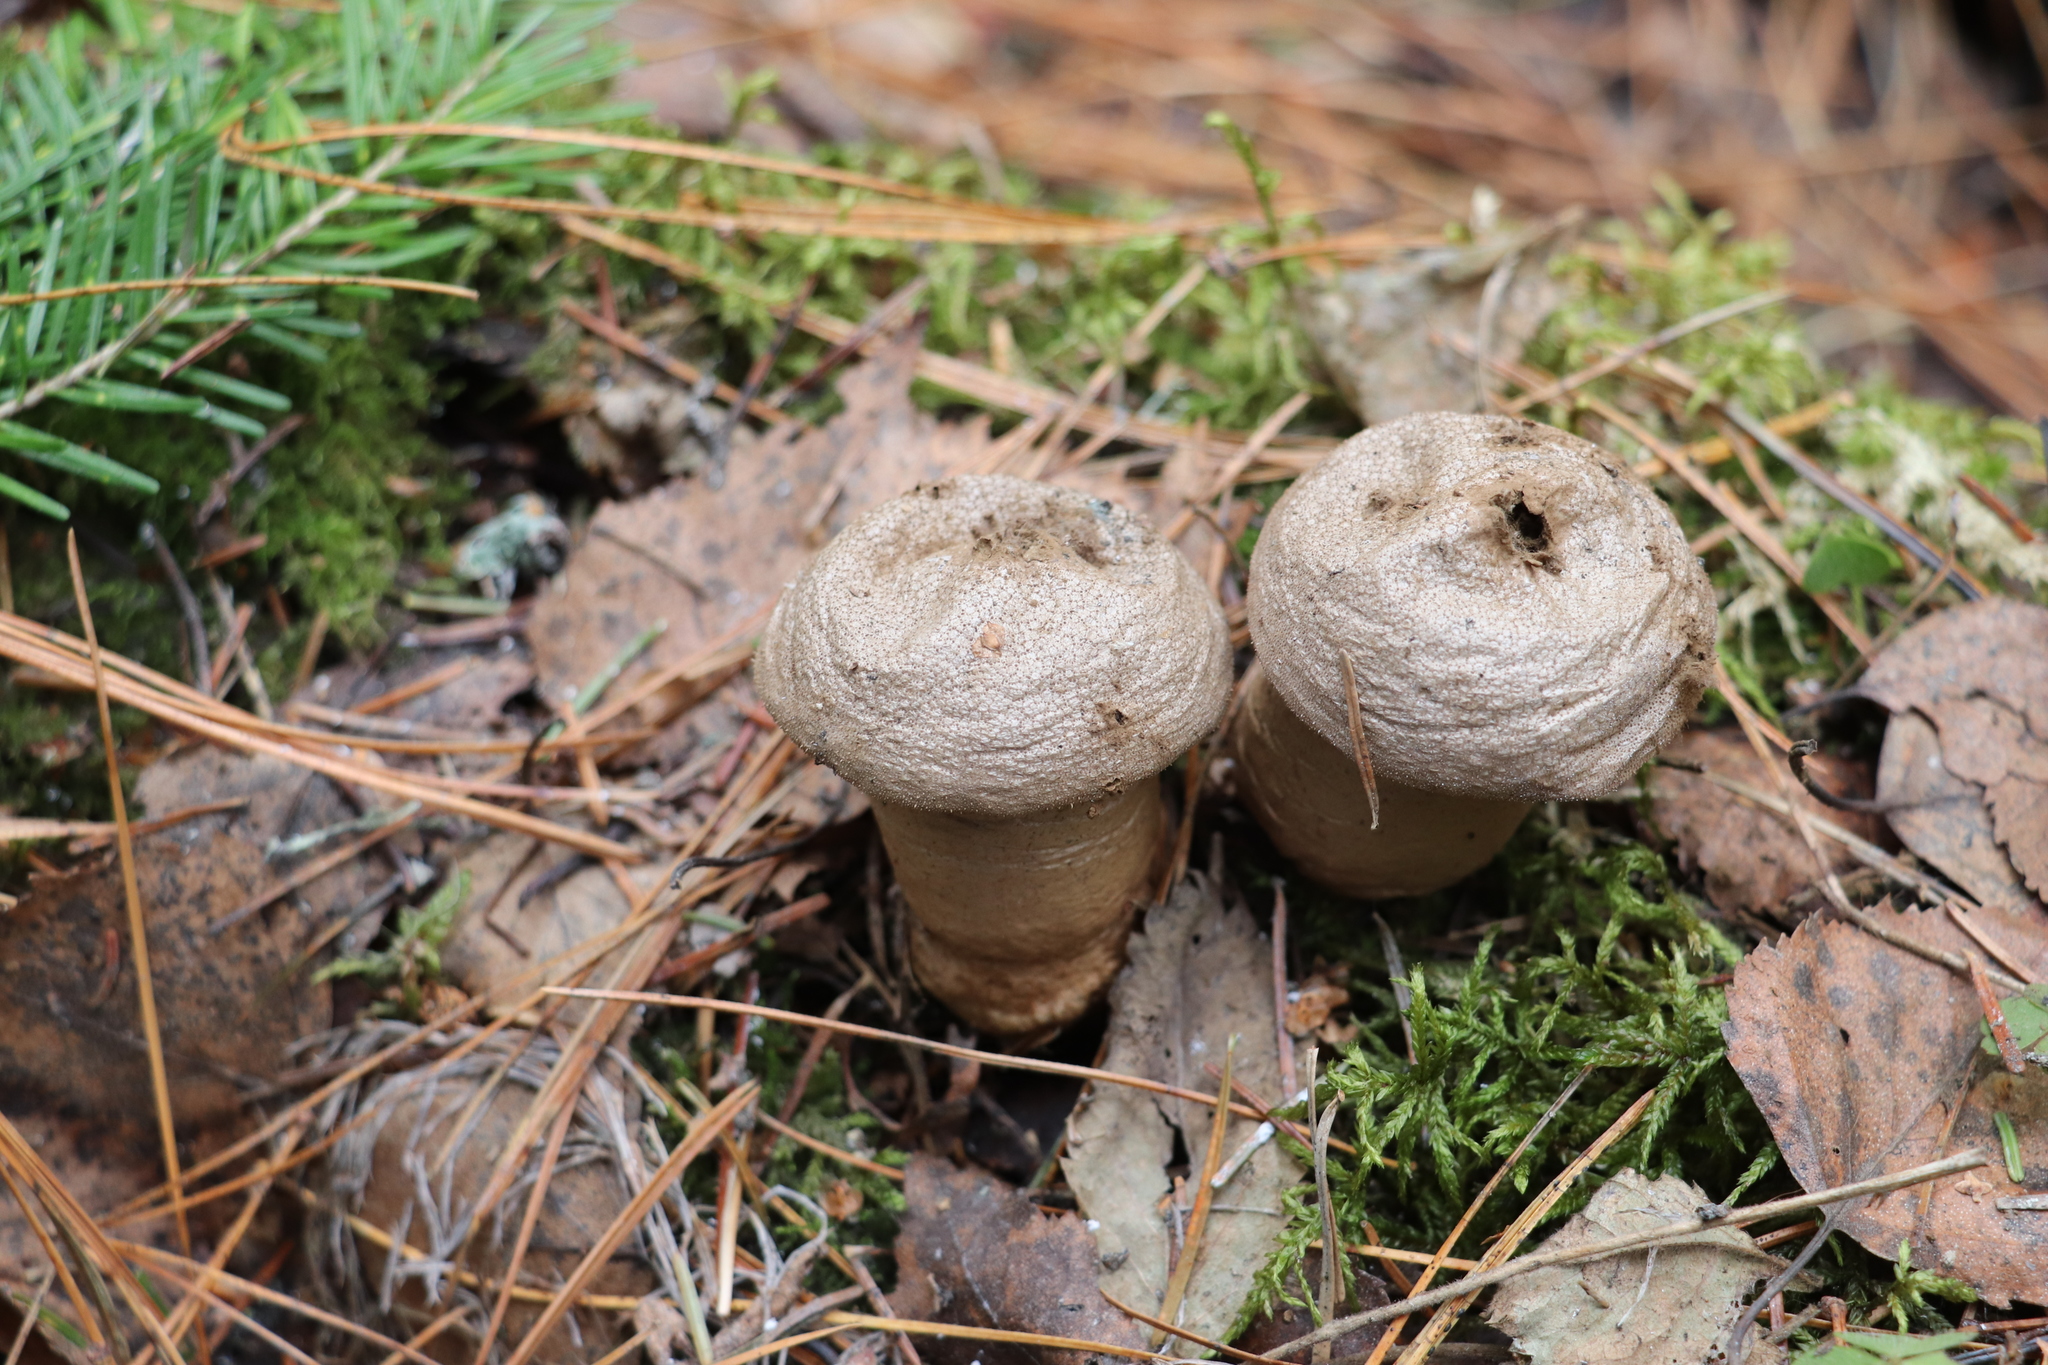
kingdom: Fungi
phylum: Basidiomycota
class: Agaricomycetes
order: Agaricales
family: Lycoperdaceae
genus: Lycoperdon
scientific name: Lycoperdon perlatum
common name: Common puffball
